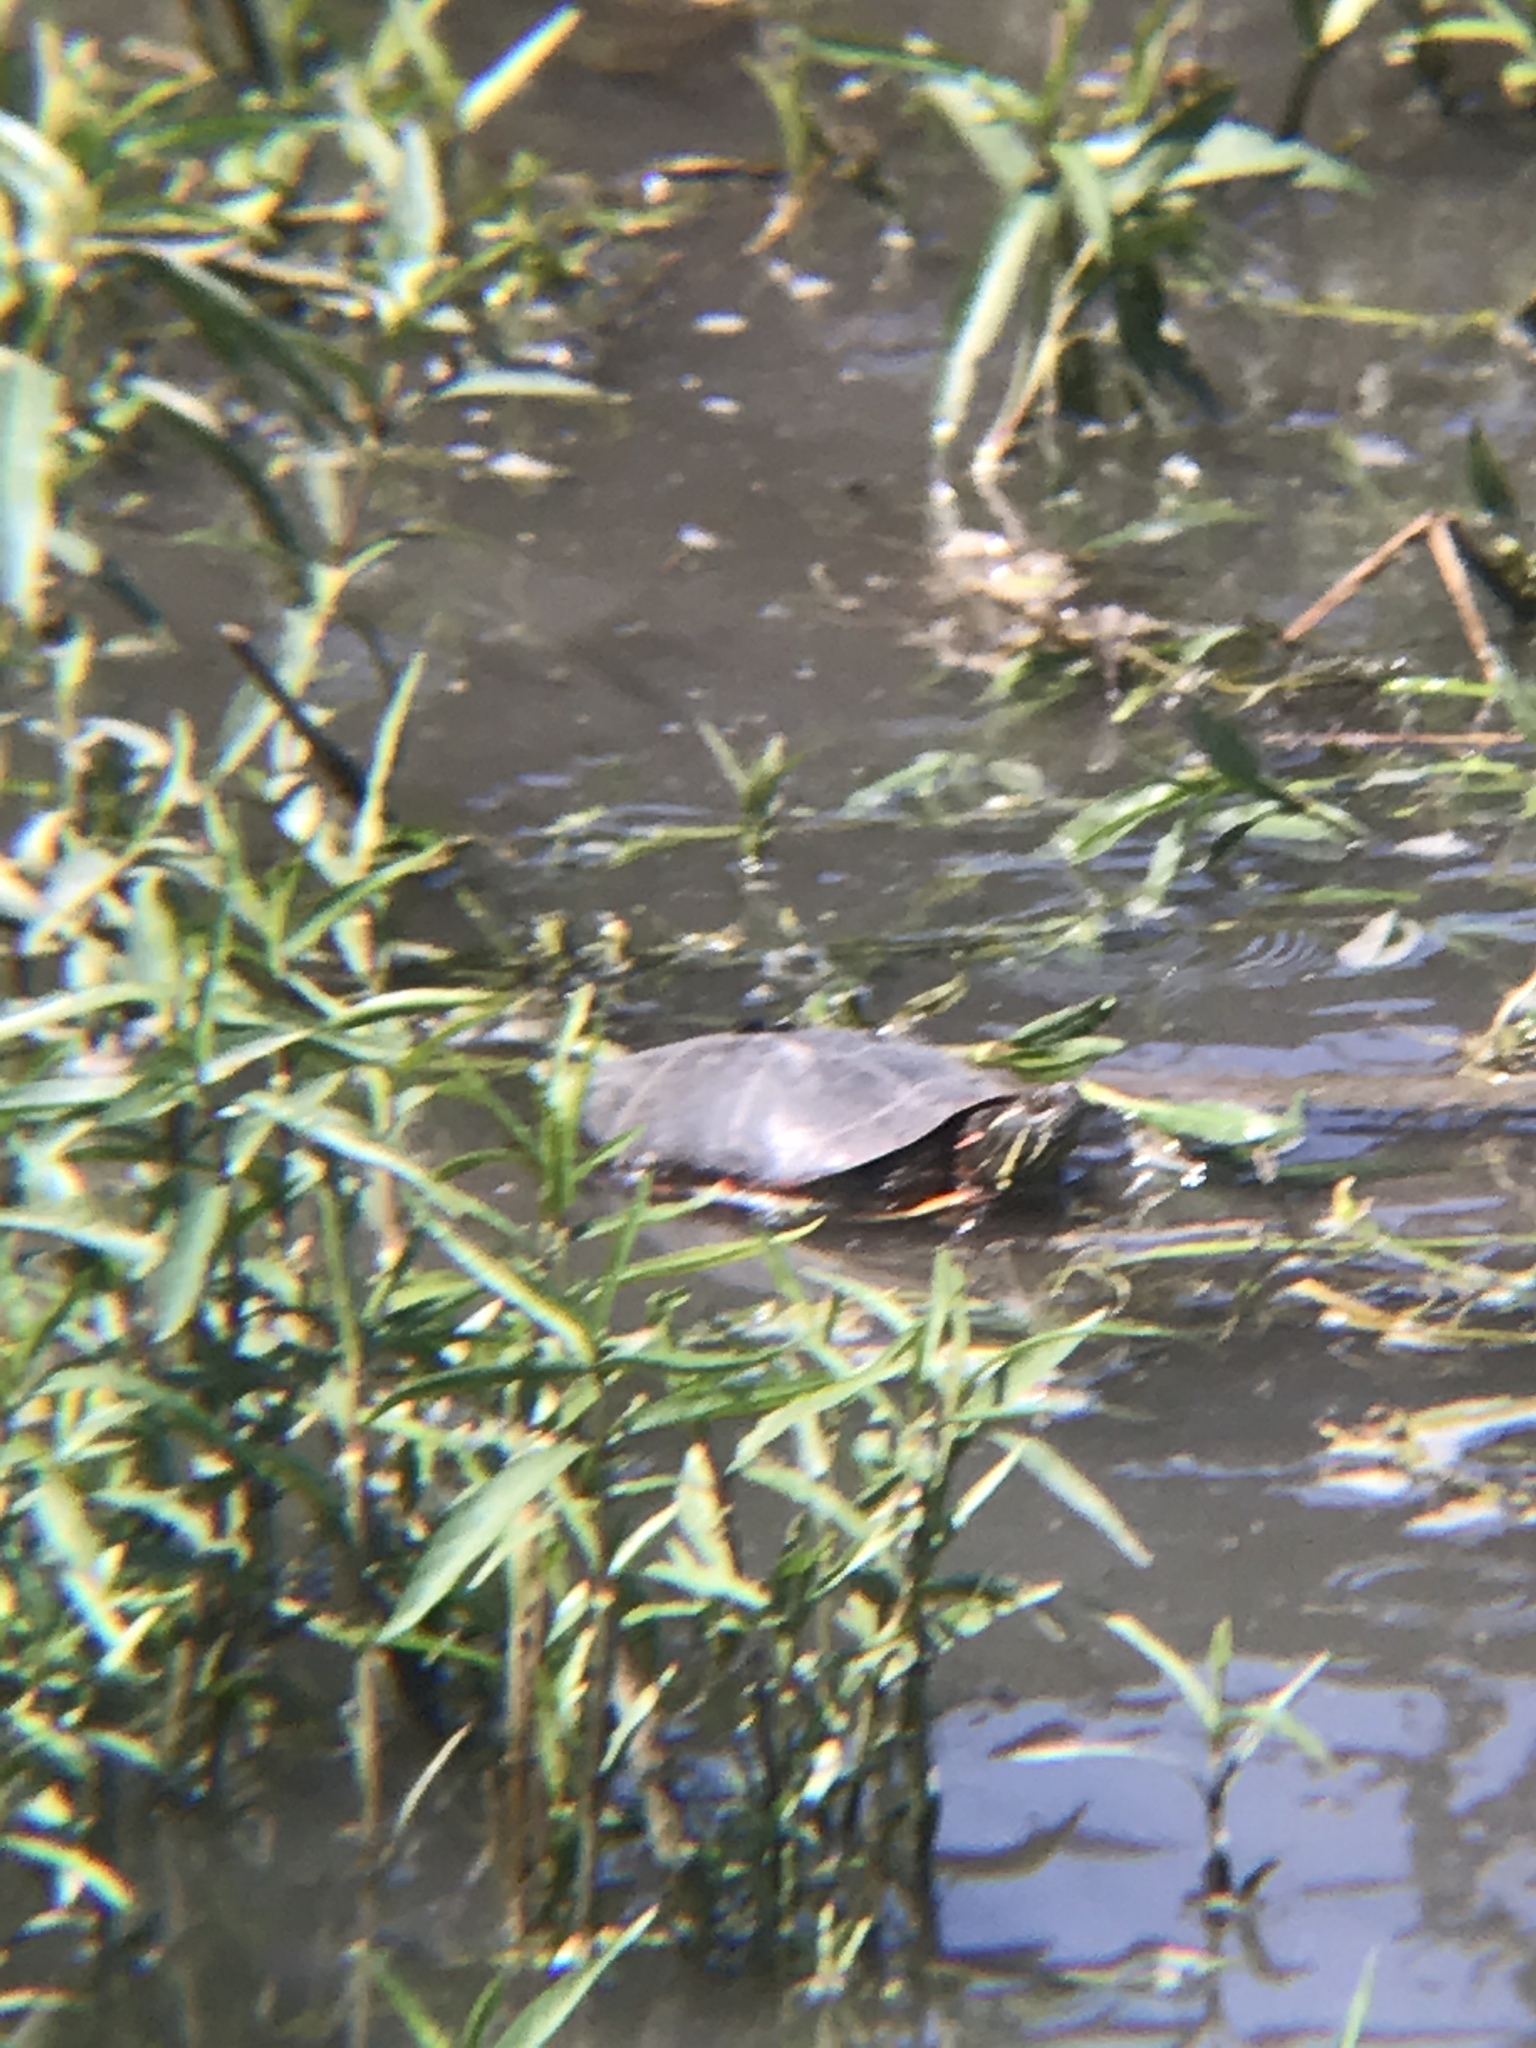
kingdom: Animalia
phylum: Chordata
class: Testudines
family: Emydidae
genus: Chrysemys
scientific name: Chrysemys picta
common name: Painted turtle
